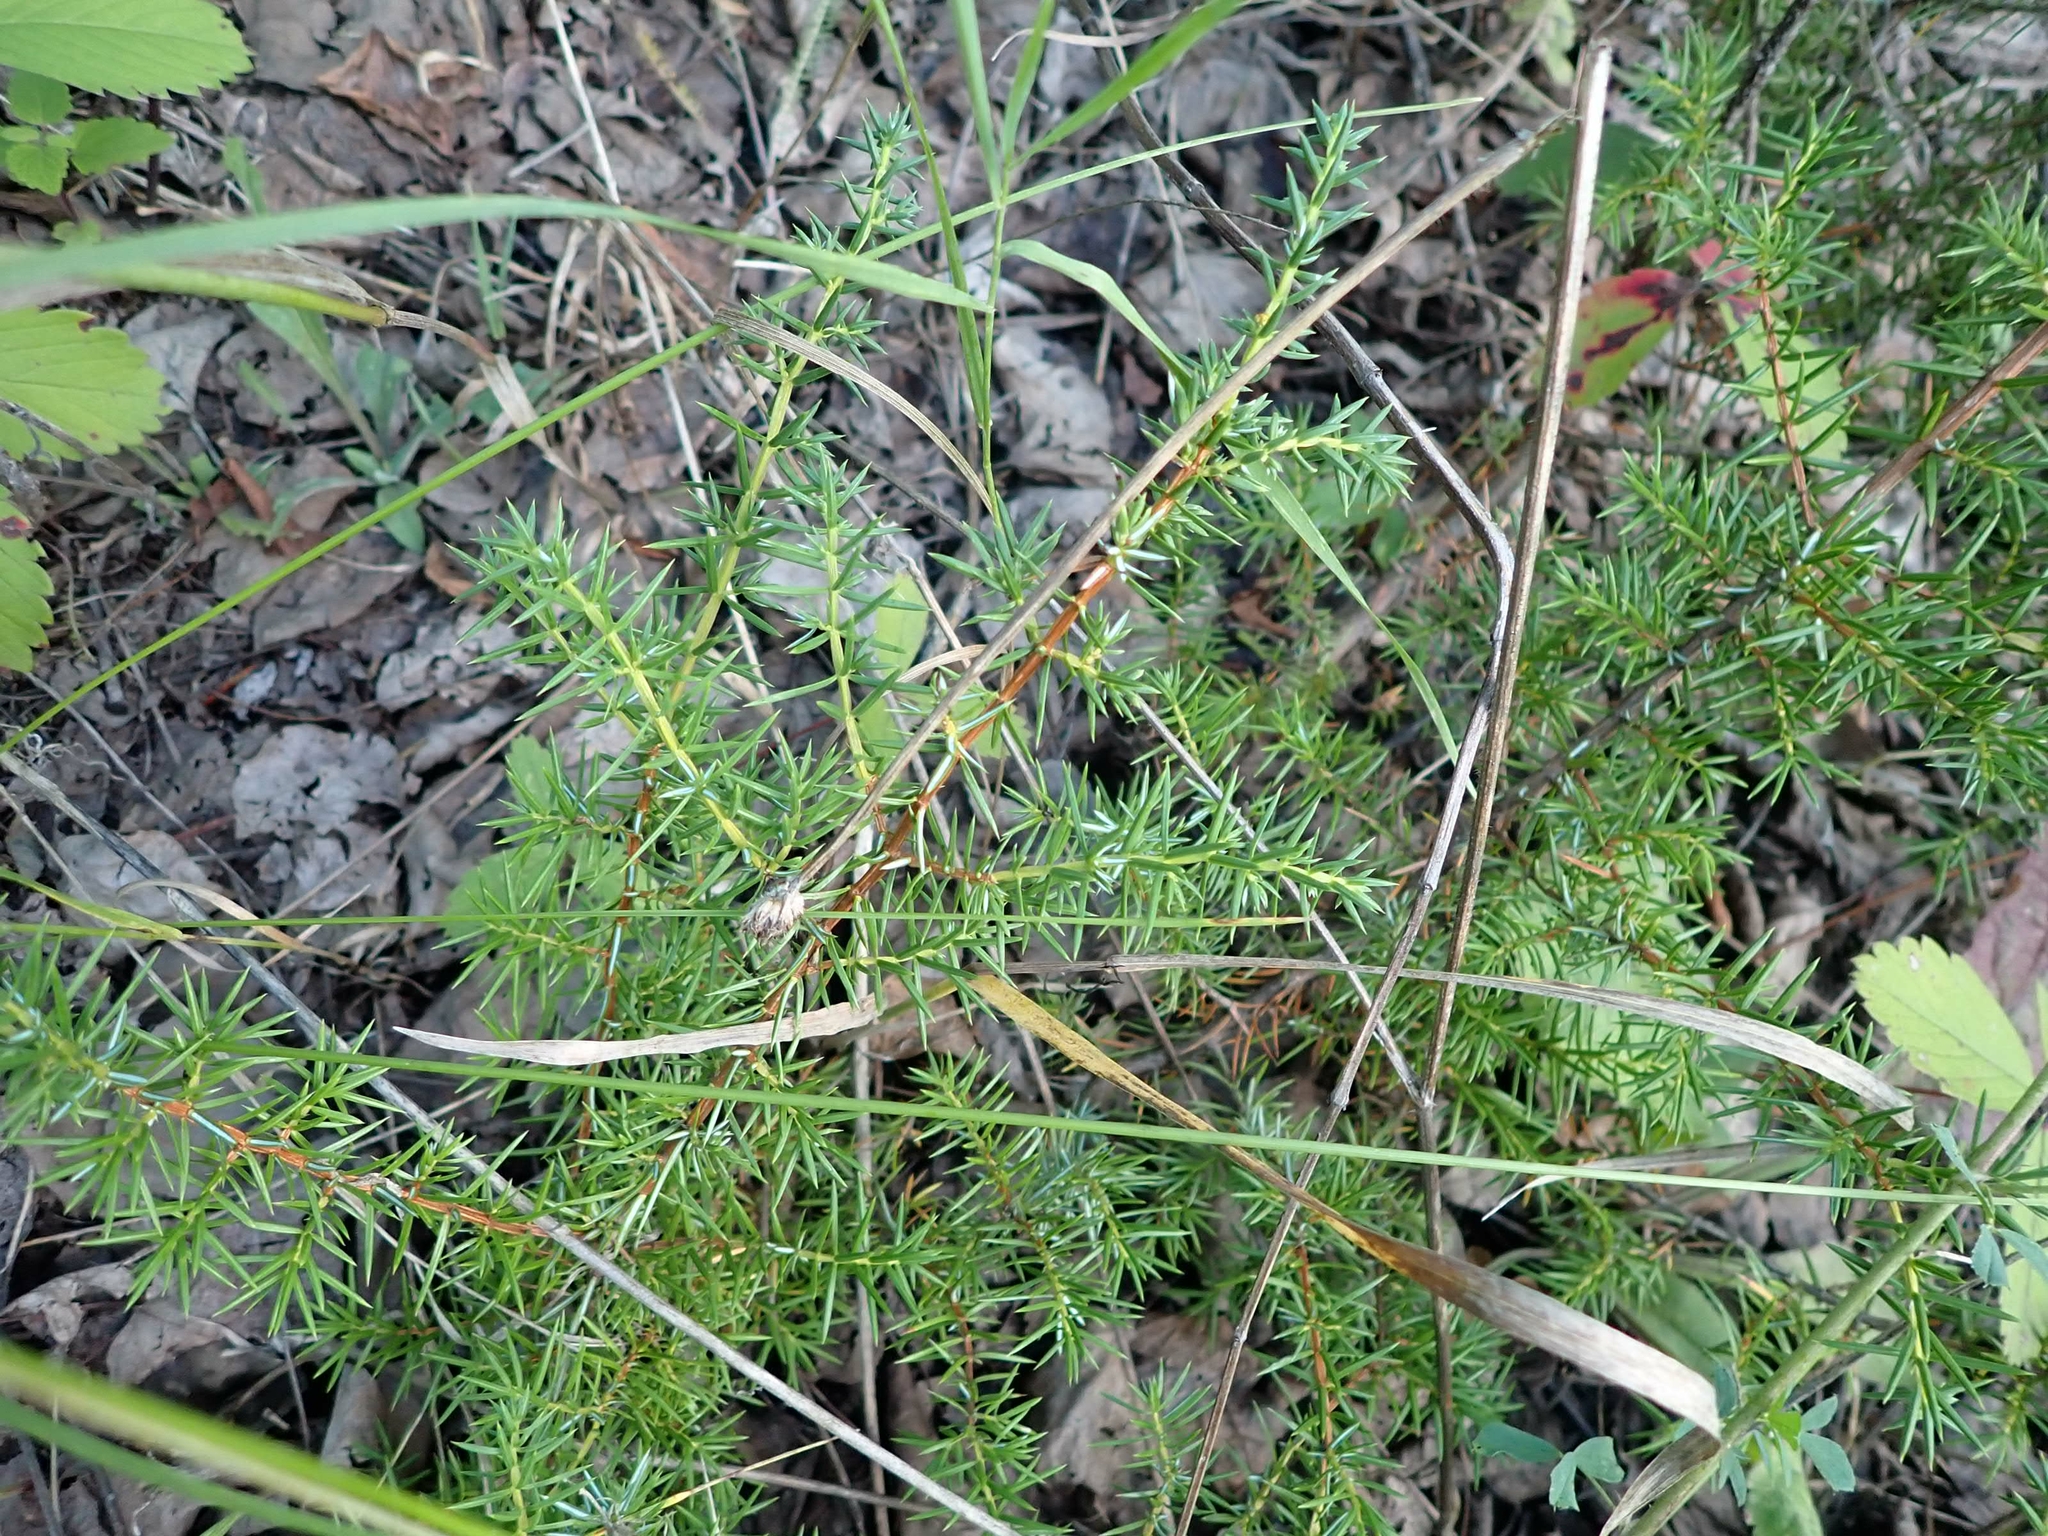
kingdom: Plantae
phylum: Tracheophyta
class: Pinopsida
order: Pinales
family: Cupressaceae
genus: Juniperus
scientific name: Juniperus communis
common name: Common juniper
